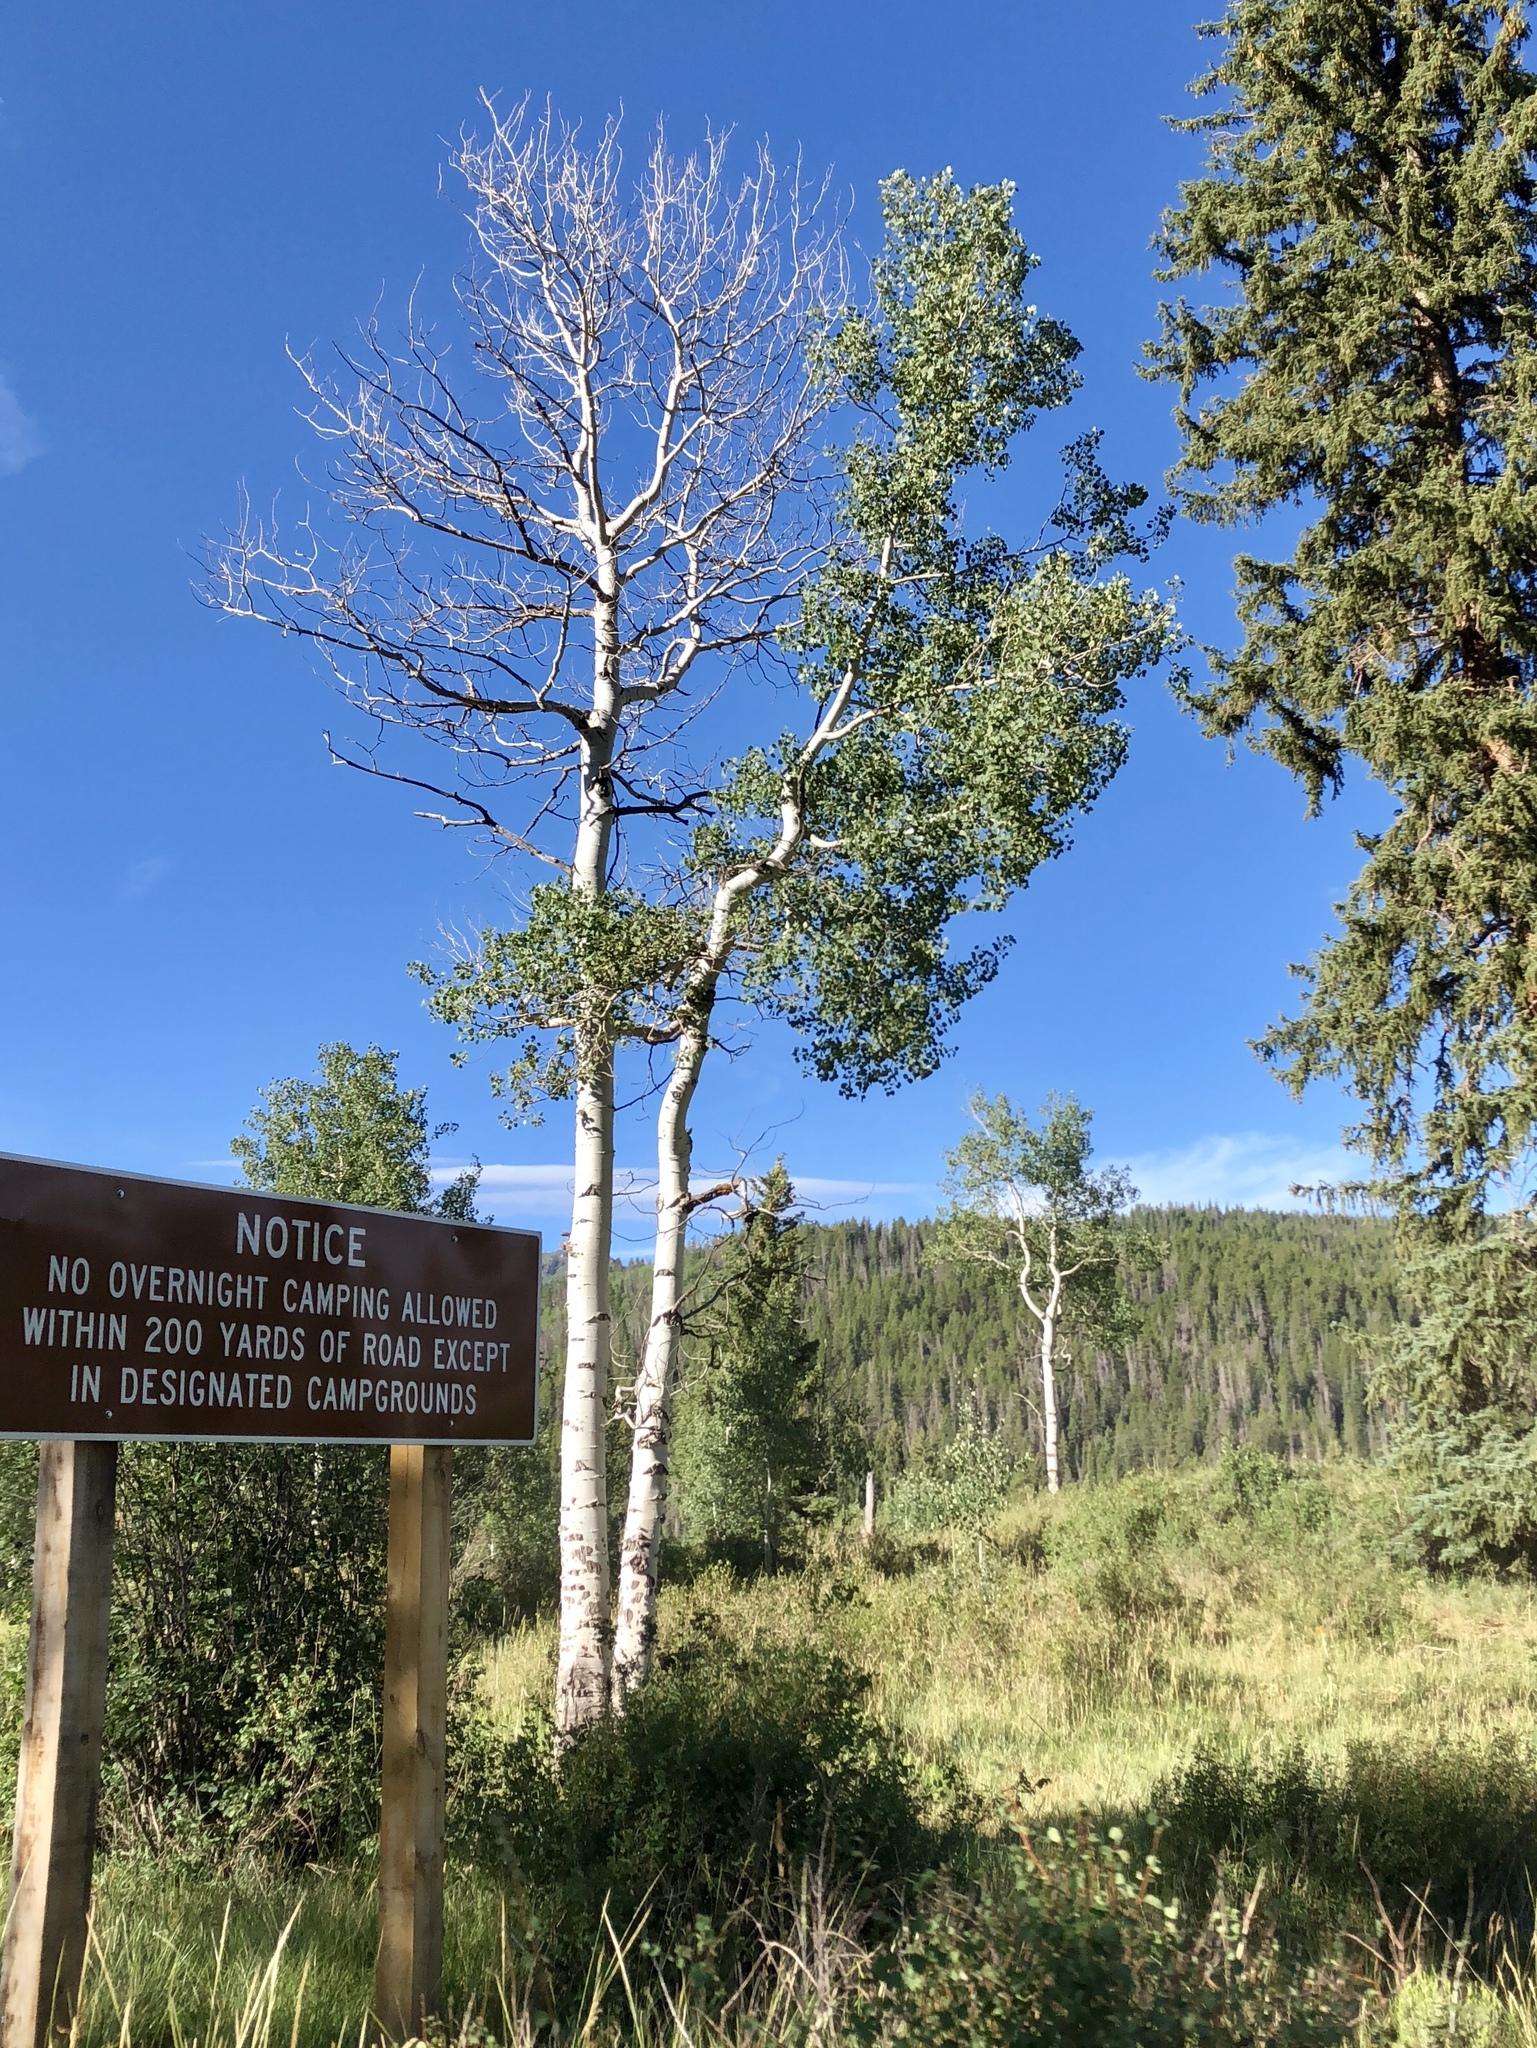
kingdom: Plantae
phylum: Tracheophyta
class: Magnoliopsida
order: Malpighiales
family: Salicaceae
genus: Populus
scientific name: Populus tremuloides
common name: Quaking aspen
